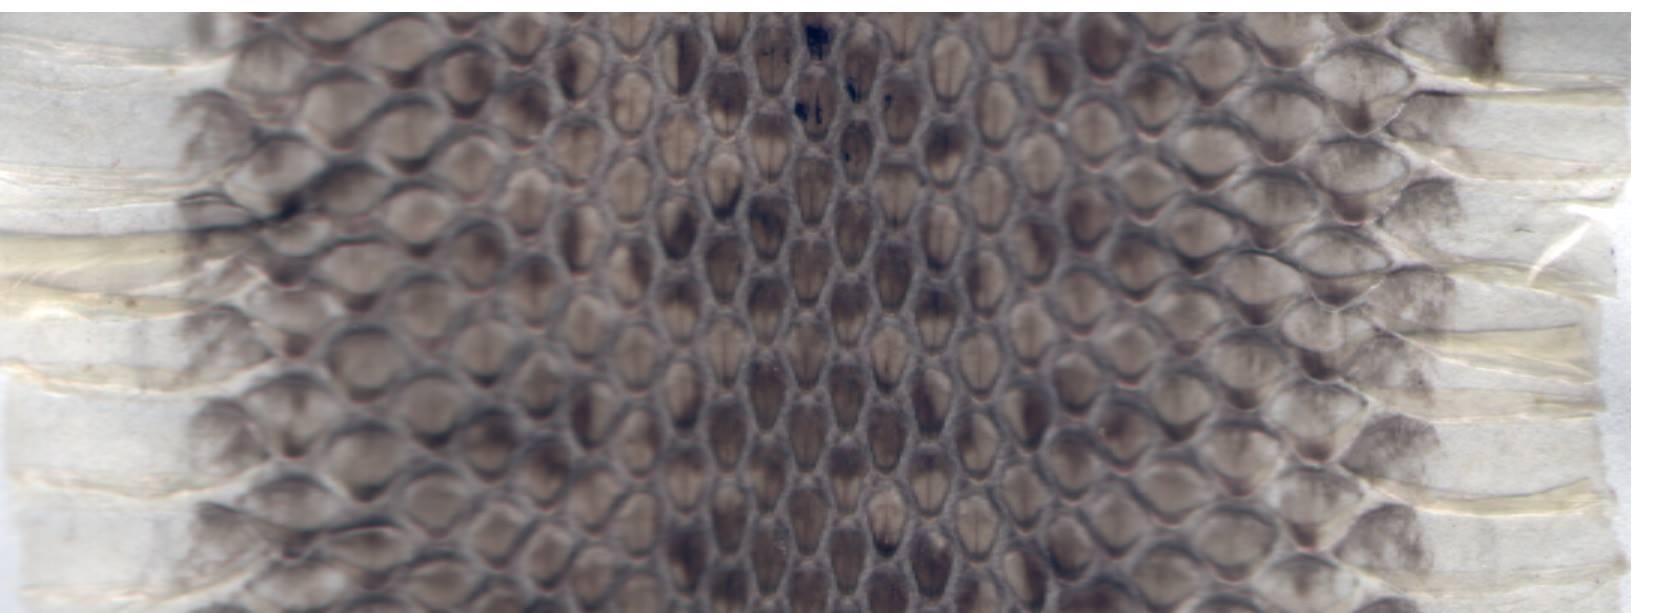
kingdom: Animalia
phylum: Chordata
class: Squamata
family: Viperidae
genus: Vipera
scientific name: Vipera darevskii
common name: Darevsky's viper
